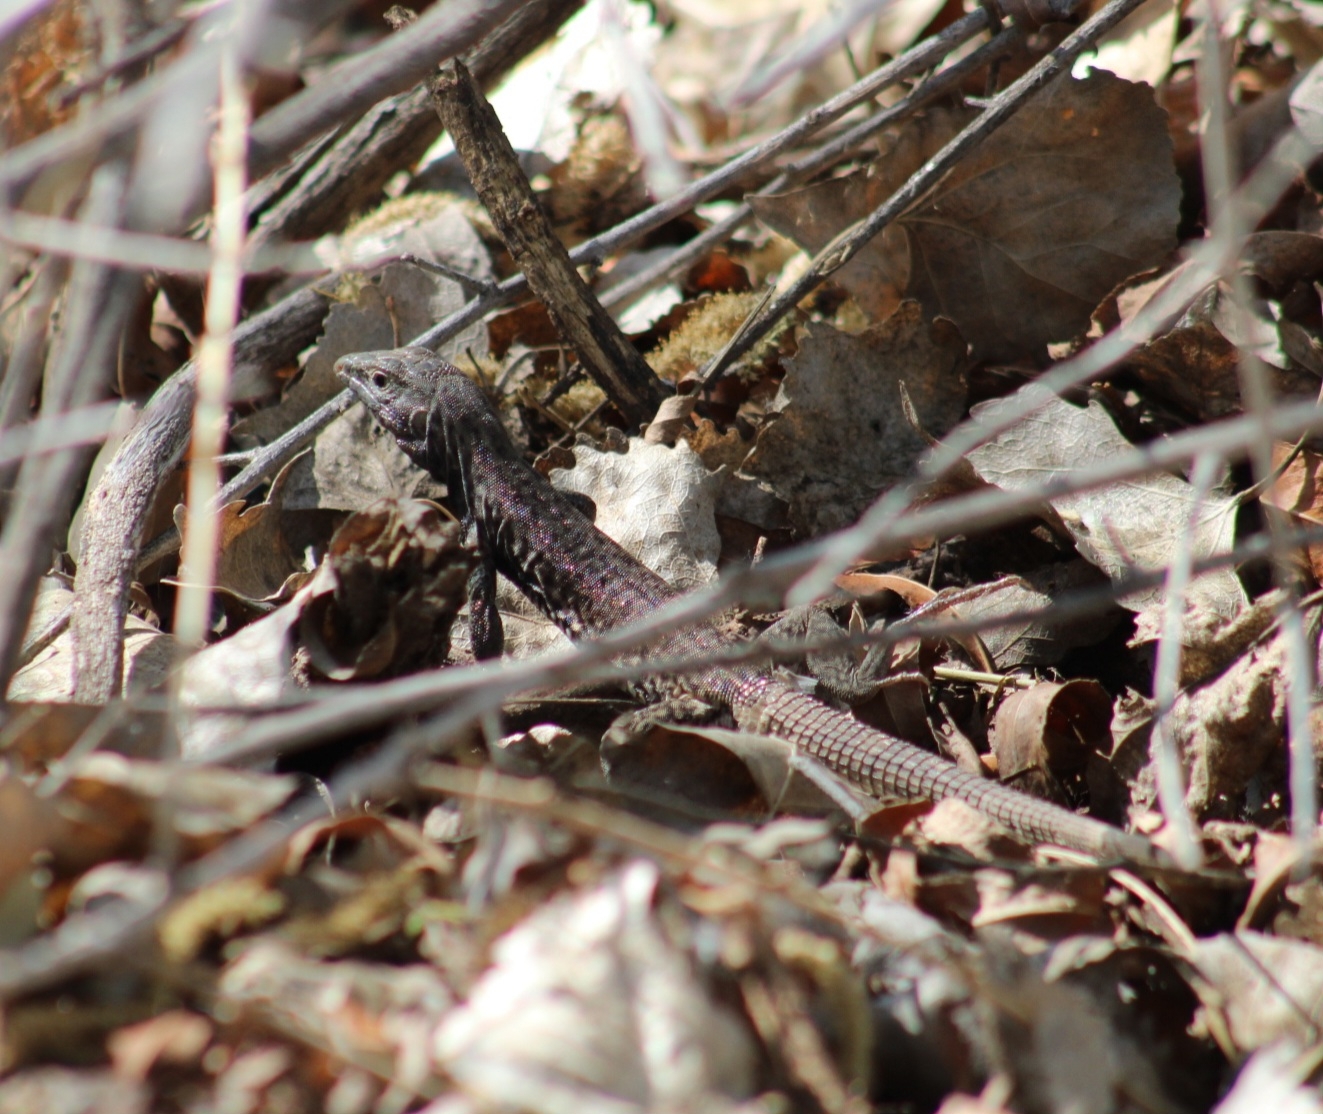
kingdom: Animalia
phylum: Chordata
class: Squamata
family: Teiidae
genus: Aspidoscelis
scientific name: Aspidoscelis tigris
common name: Tiger whiptail
